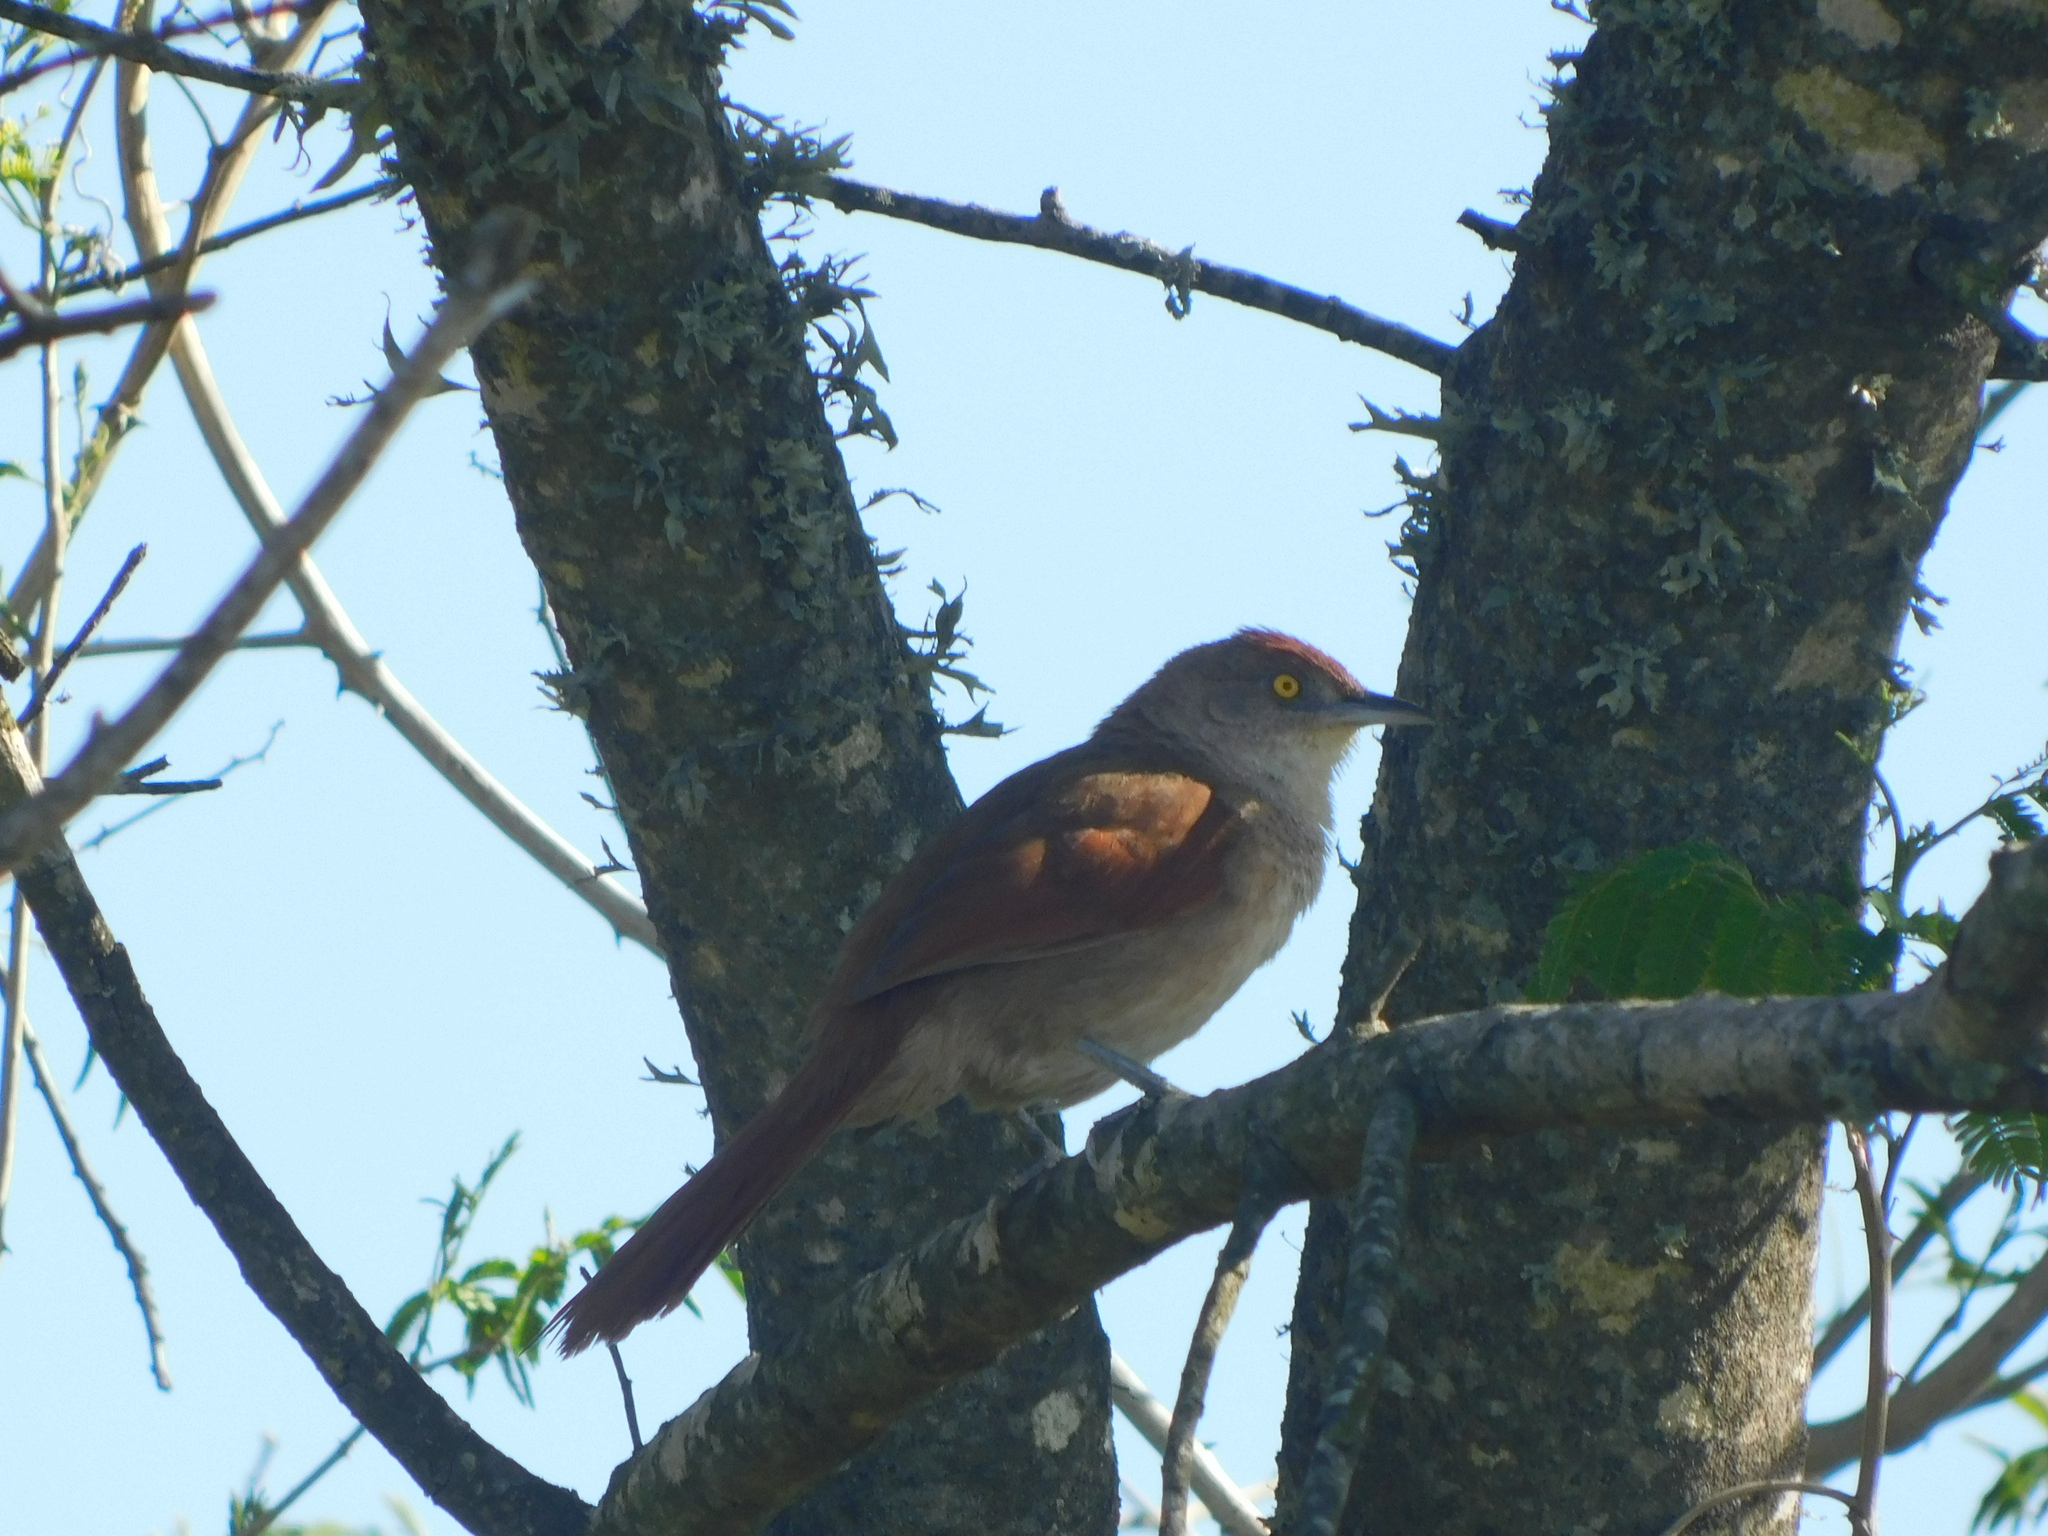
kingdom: Animalia
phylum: Chordata
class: Aves
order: Passeriformes
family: Furnariidae
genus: Phacellodomus
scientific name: Phacellodomus ruber
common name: Greater thornbird
